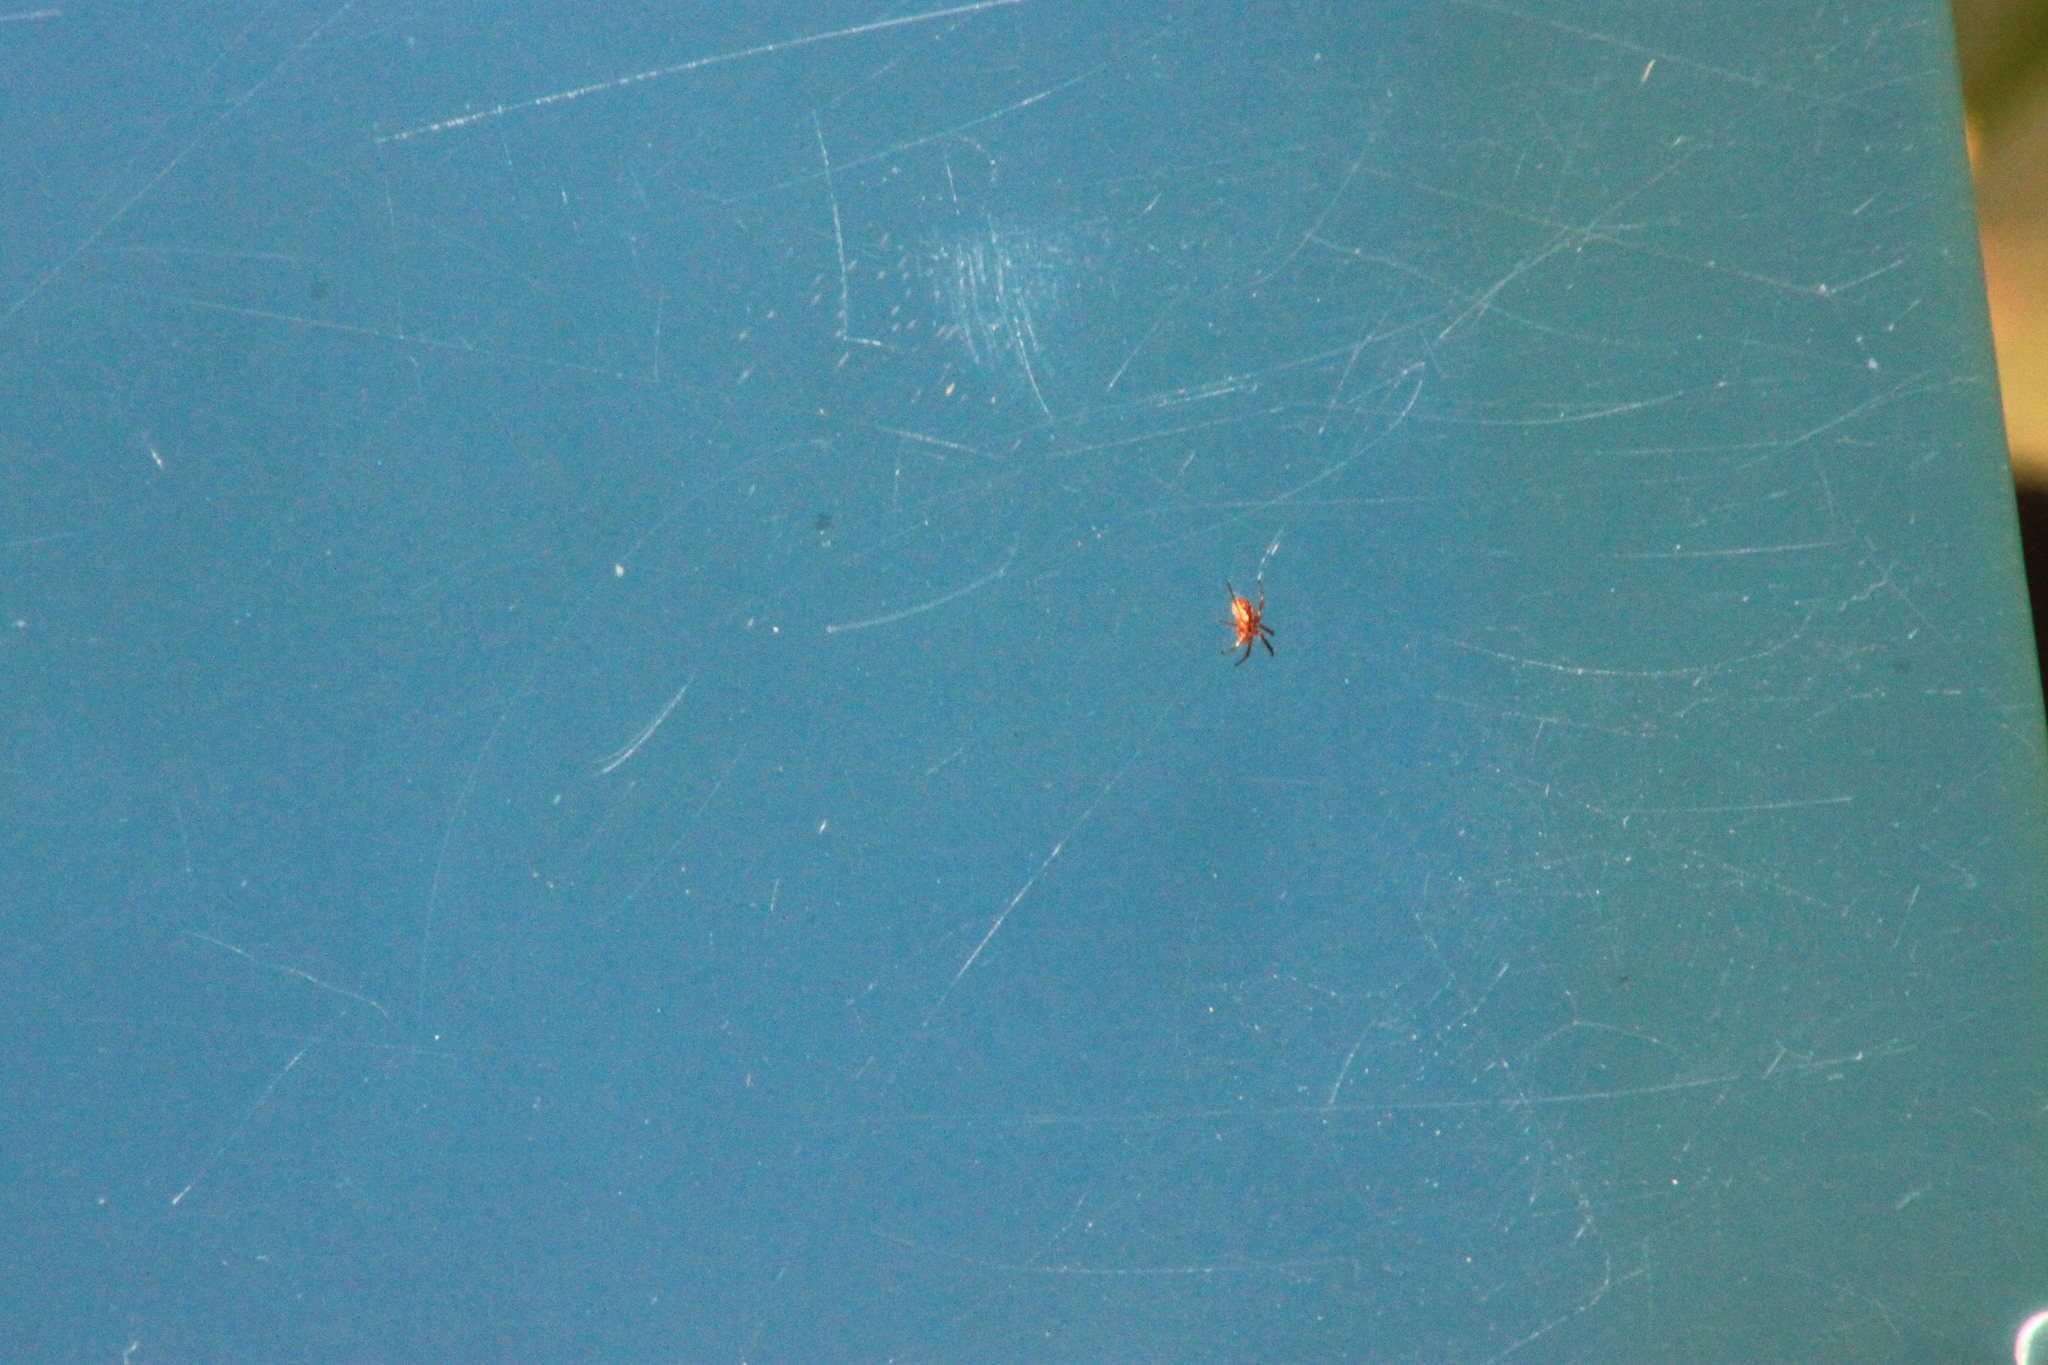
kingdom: Animalia
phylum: Arthropoda
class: Arachnida
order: Araneae
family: Araneidae
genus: Mangora
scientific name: Mangora placida
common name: Tuft-legged orbweaver
